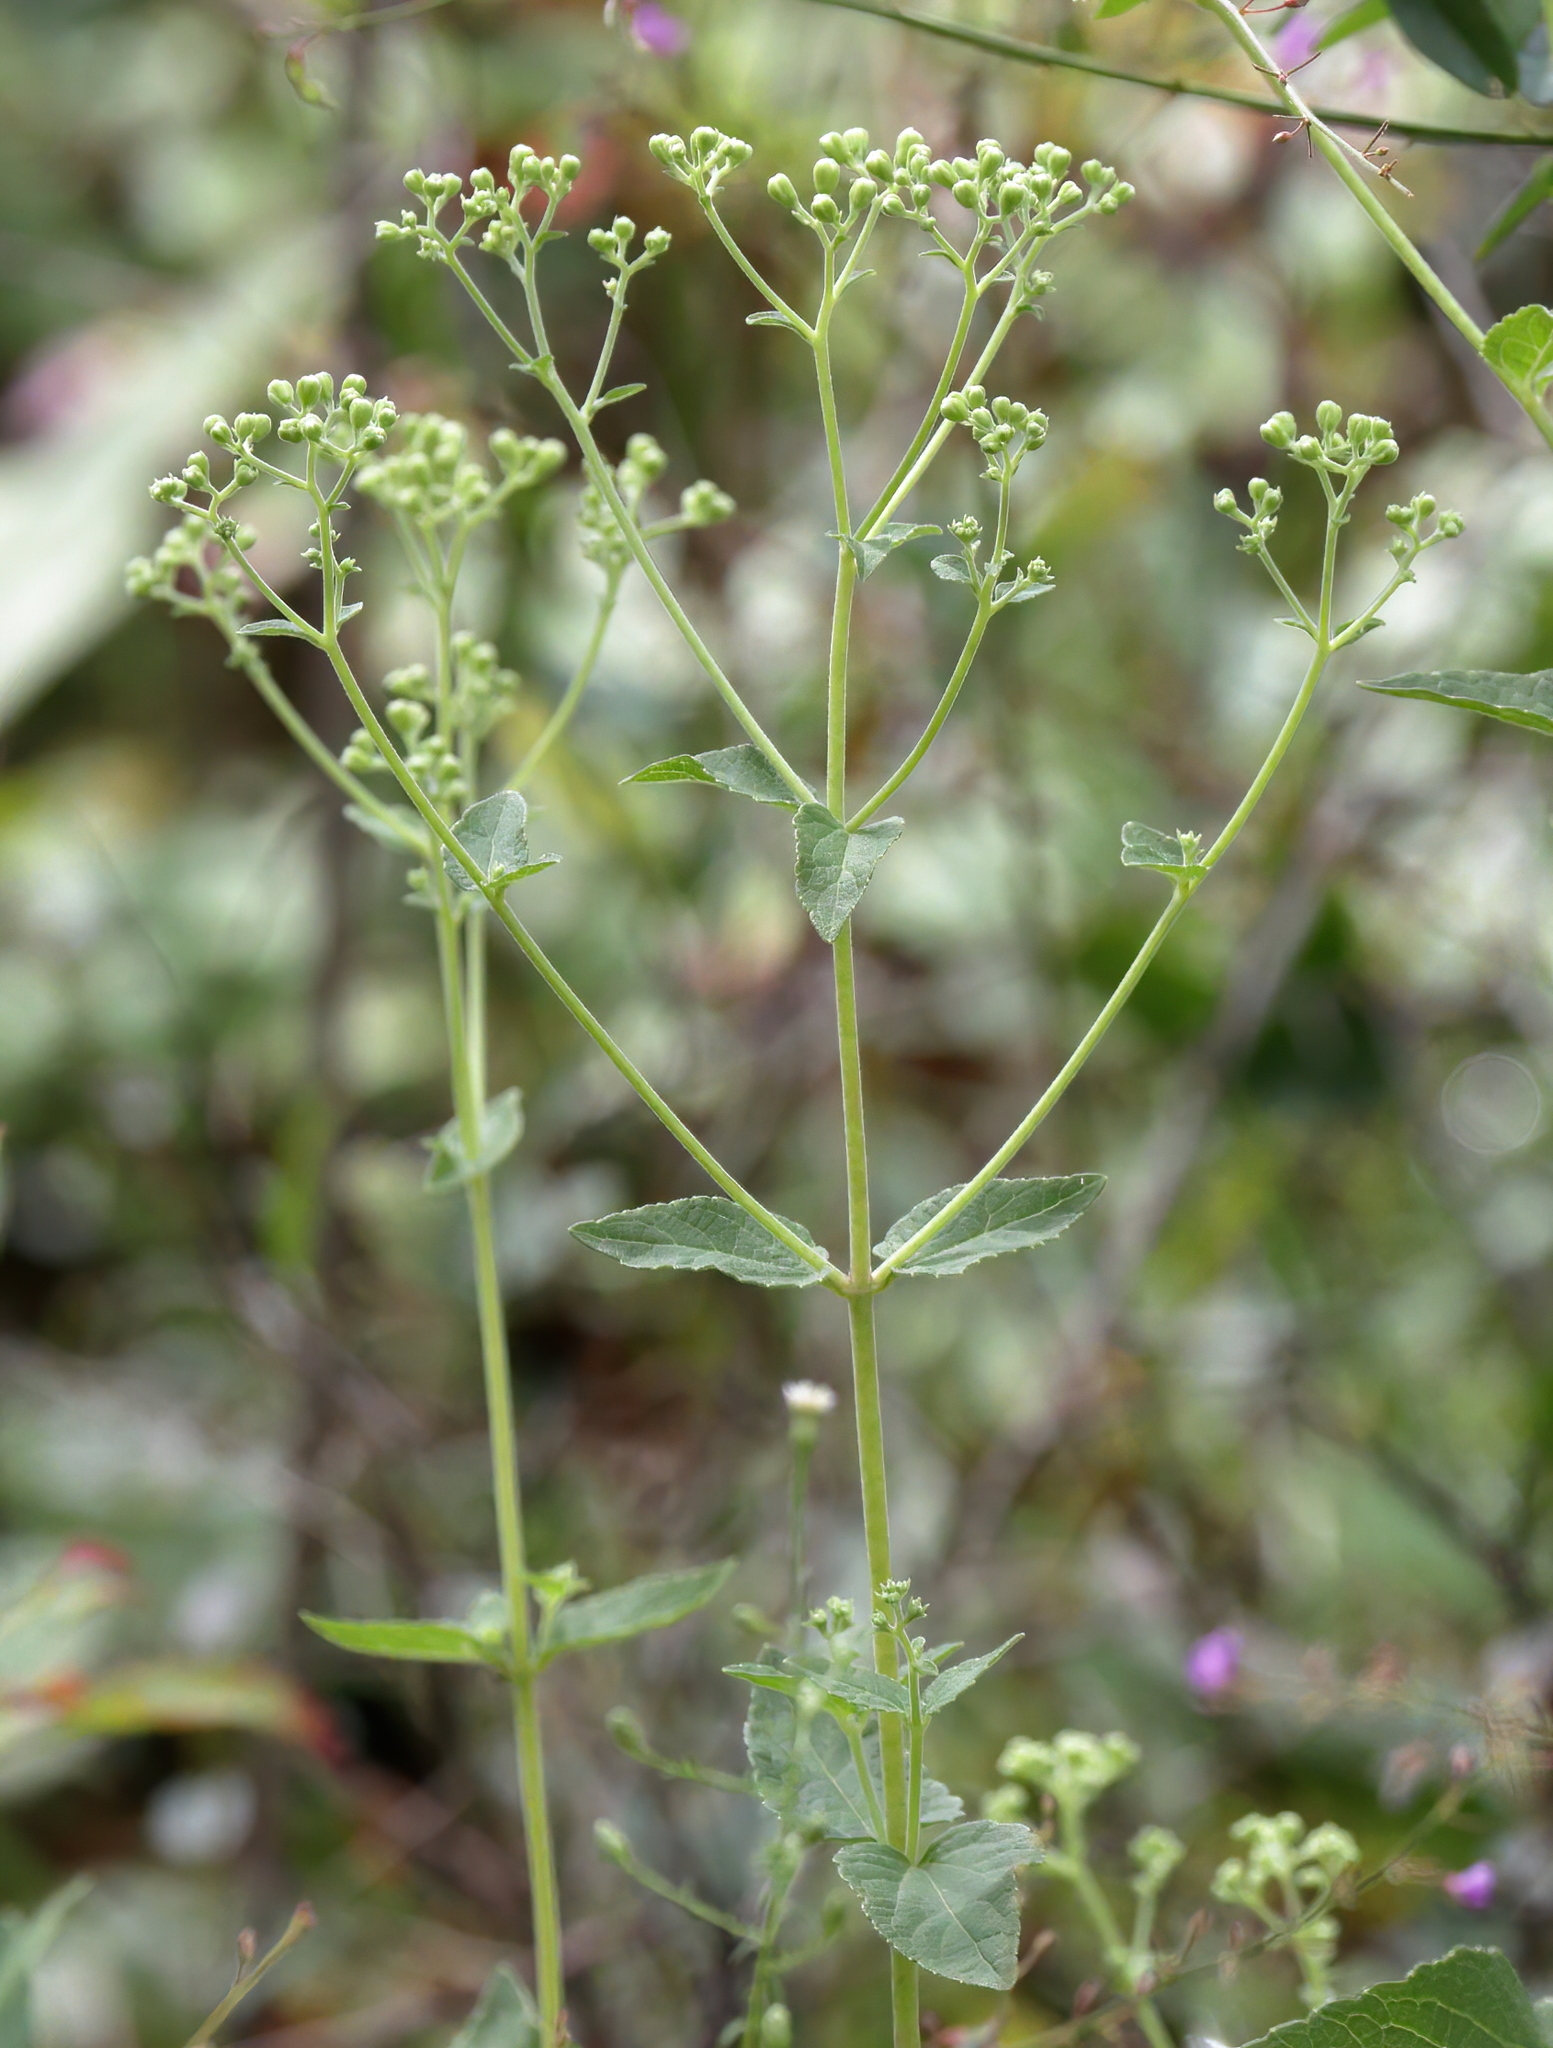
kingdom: Plantae
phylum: Tracheophyta
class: Magnoliopsida
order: Asterales
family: Asteraceae
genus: Ageratina
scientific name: Ageratina aromatica
